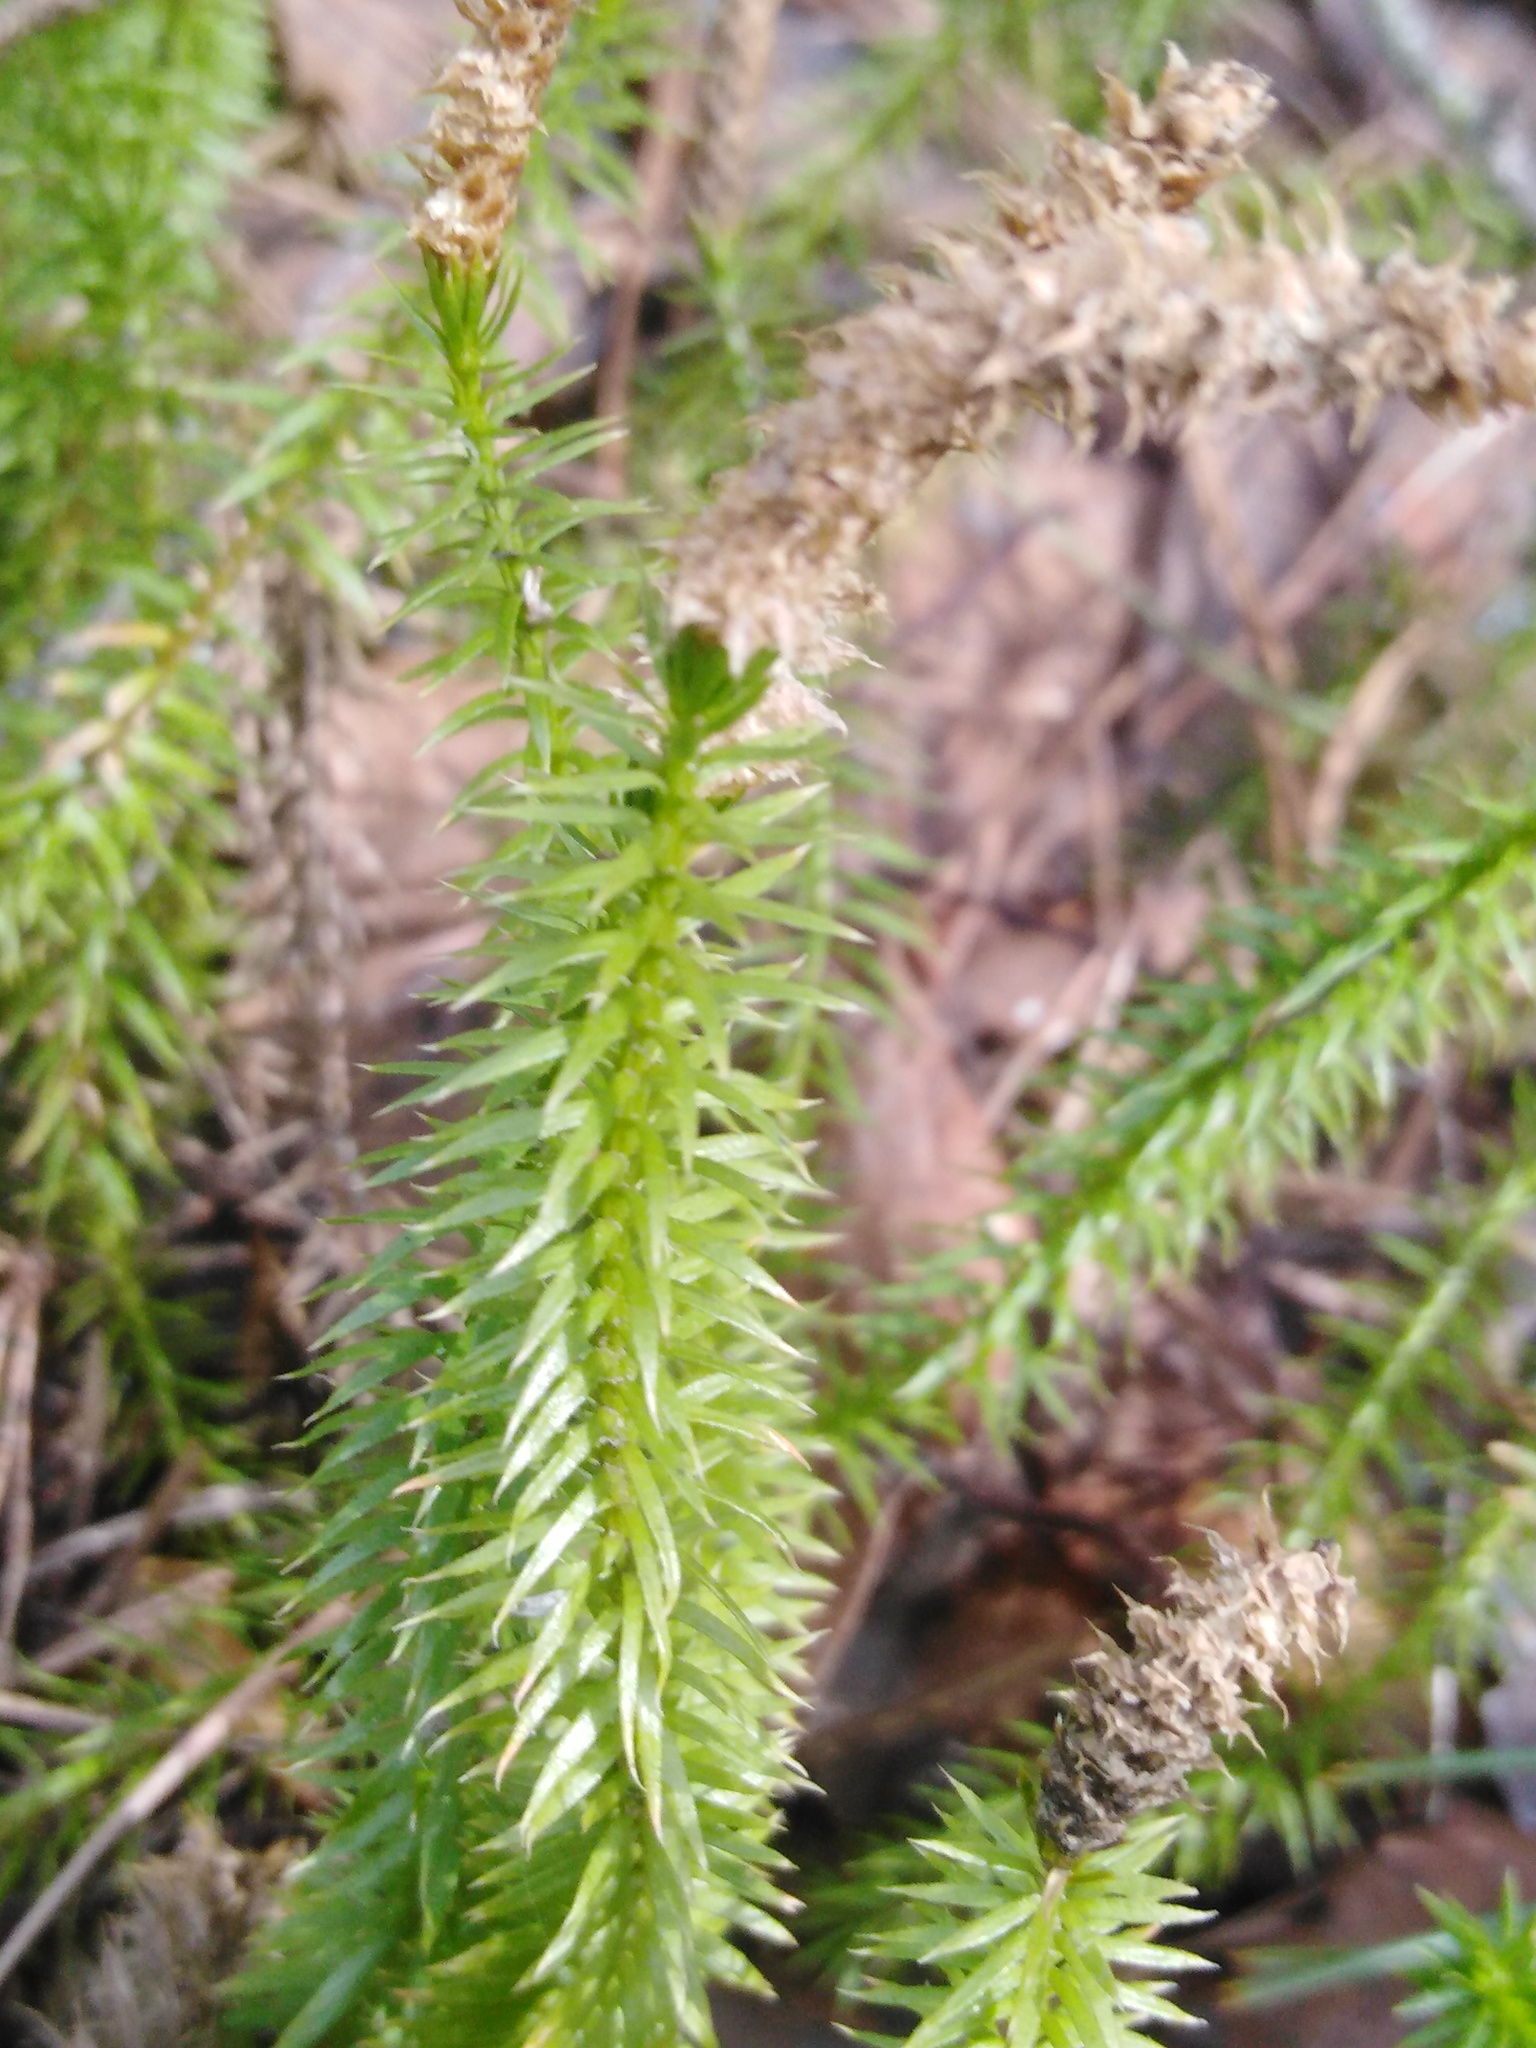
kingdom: Plantae
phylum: Tracheophyta
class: Lycopodiopsida
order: Lycopodiales
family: Lycopodiaceae
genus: Spinulum
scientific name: Spinulum annotinum
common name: Interrupted club-moss
